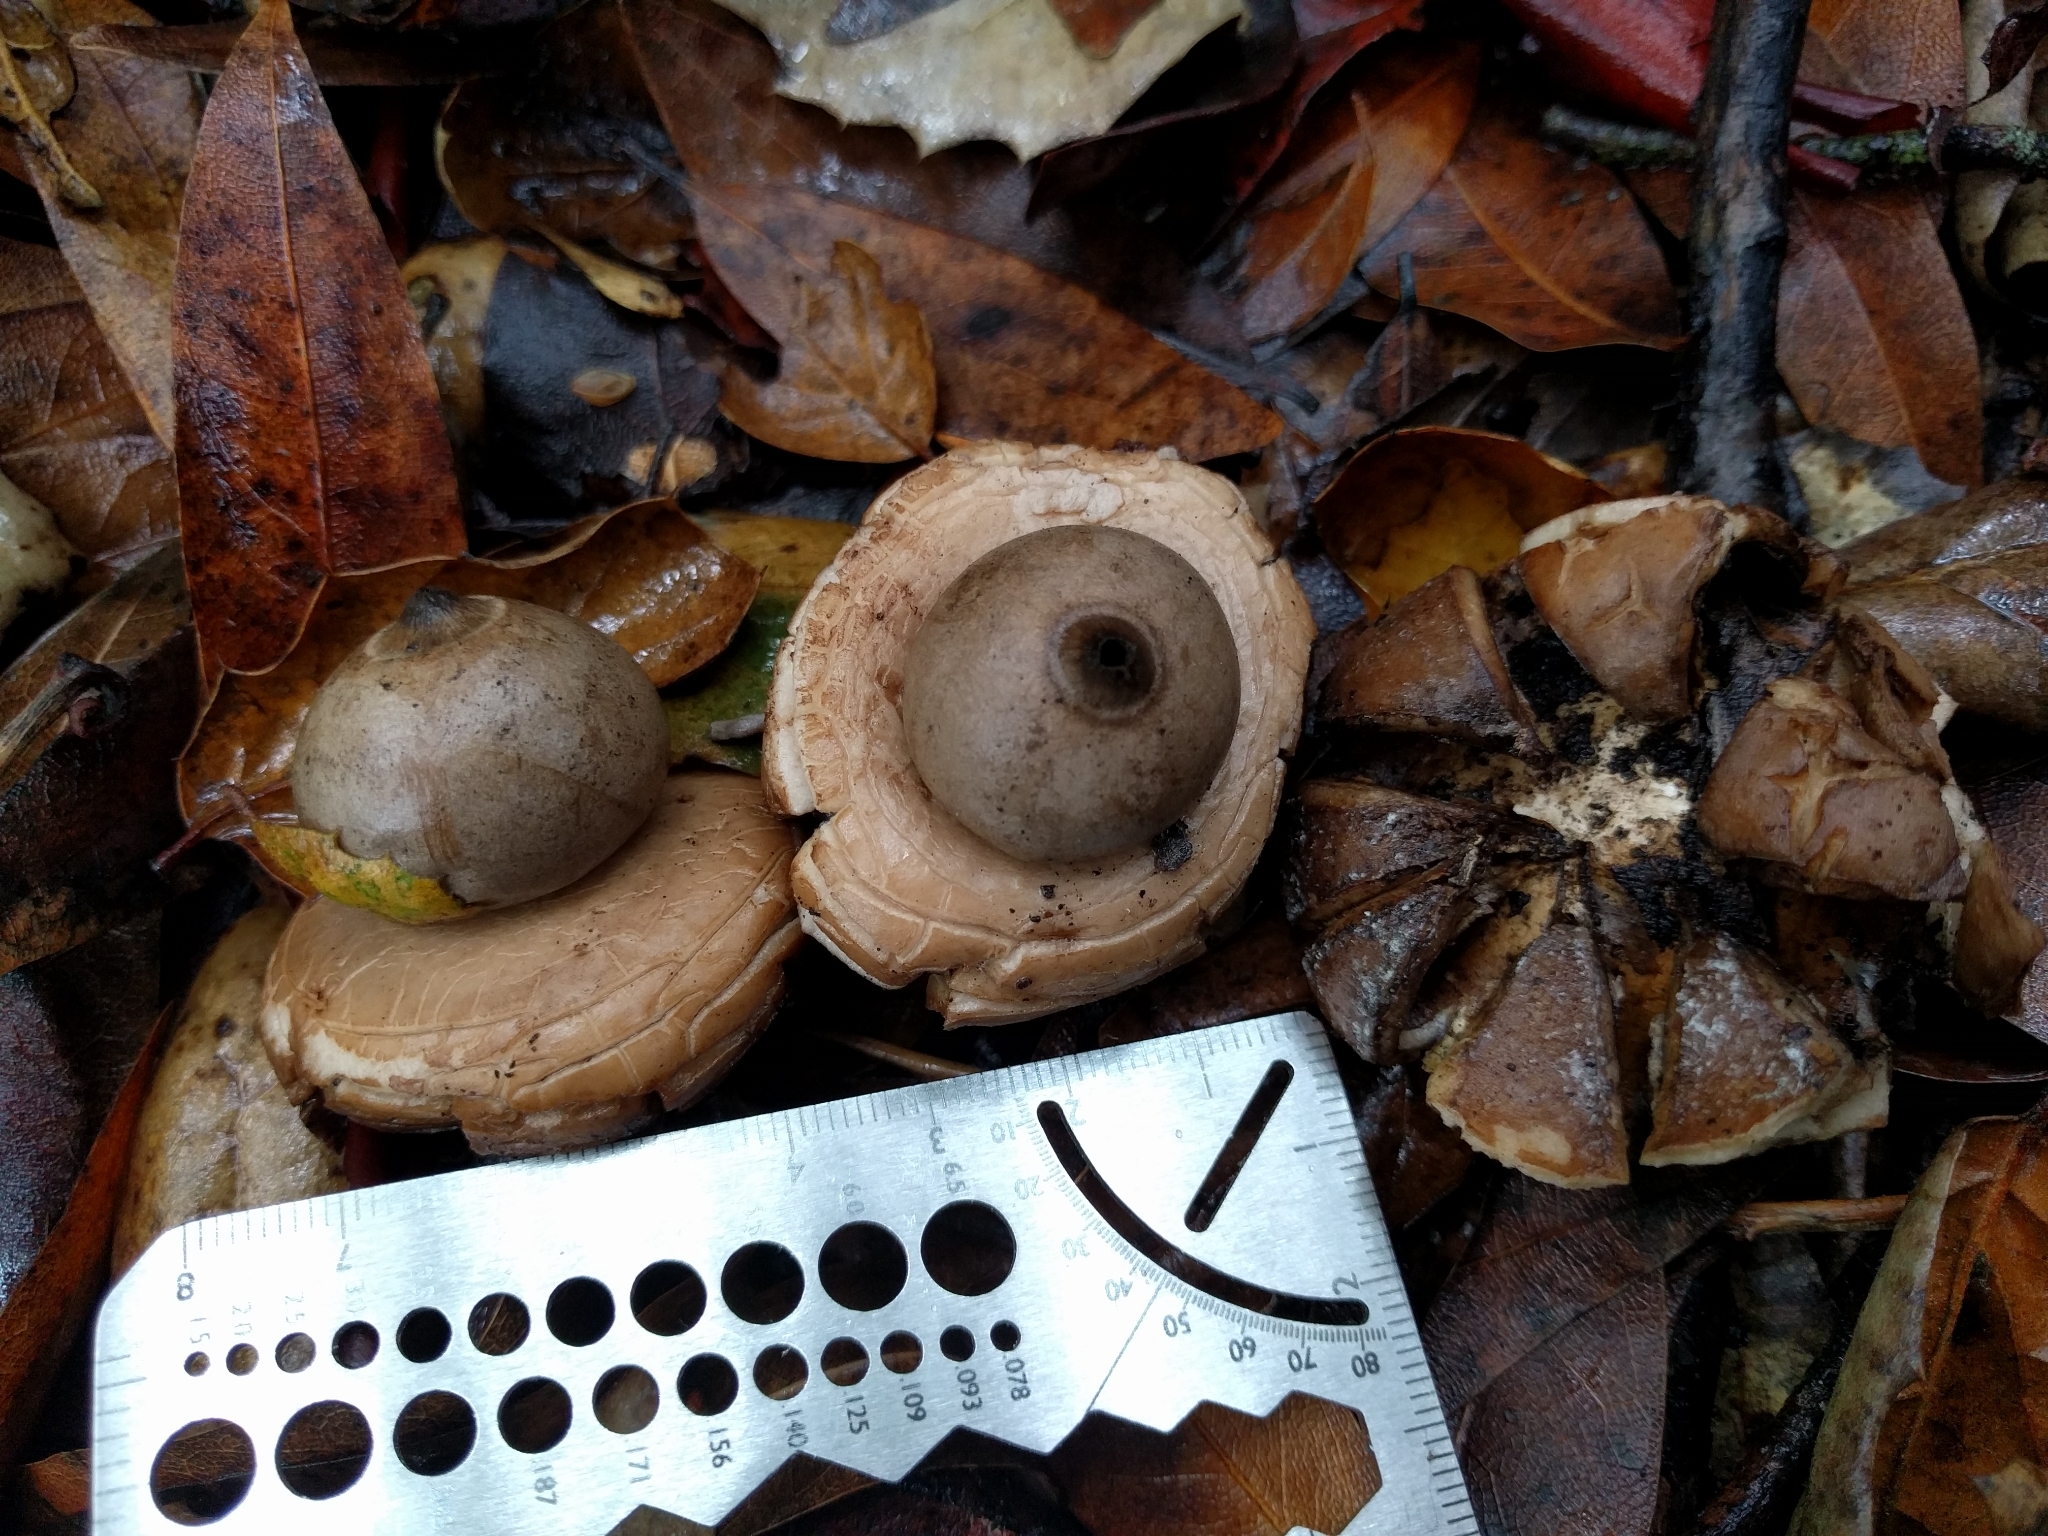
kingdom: Fungi
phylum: Basidiomycota
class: Agaricomycetes
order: Geastrales
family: Geastraceae
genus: Geastrum
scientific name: Geastrum saccatum
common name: Rounded earthstar
